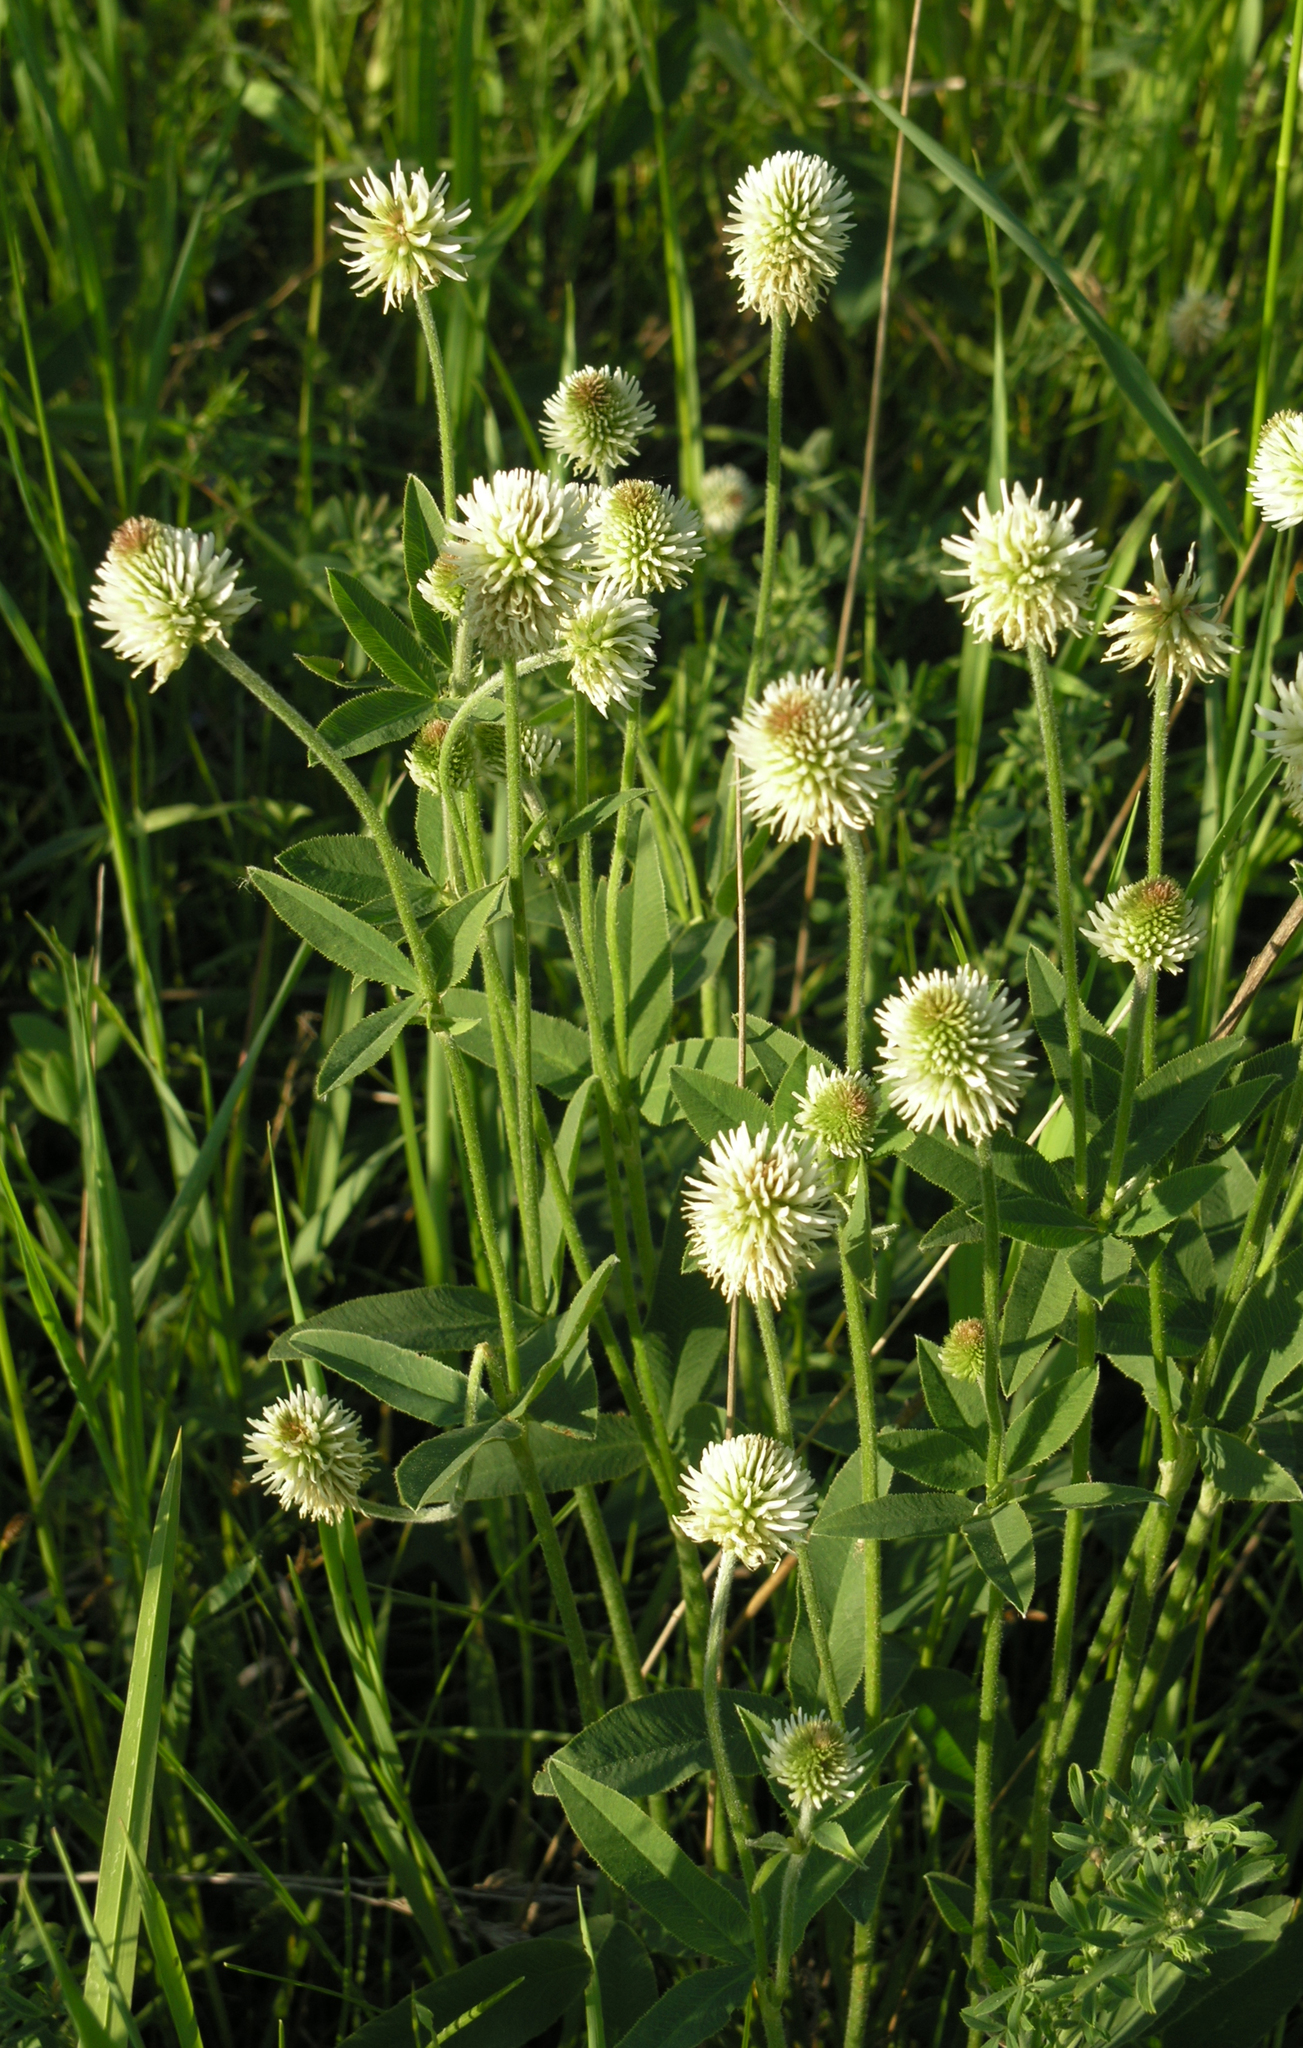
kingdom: Plantae
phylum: Tracheophyta
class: Magnoliopsida
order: Fabales
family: Fabaceae
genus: Trifolium
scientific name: Trifolium montanum
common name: Mountain clover
